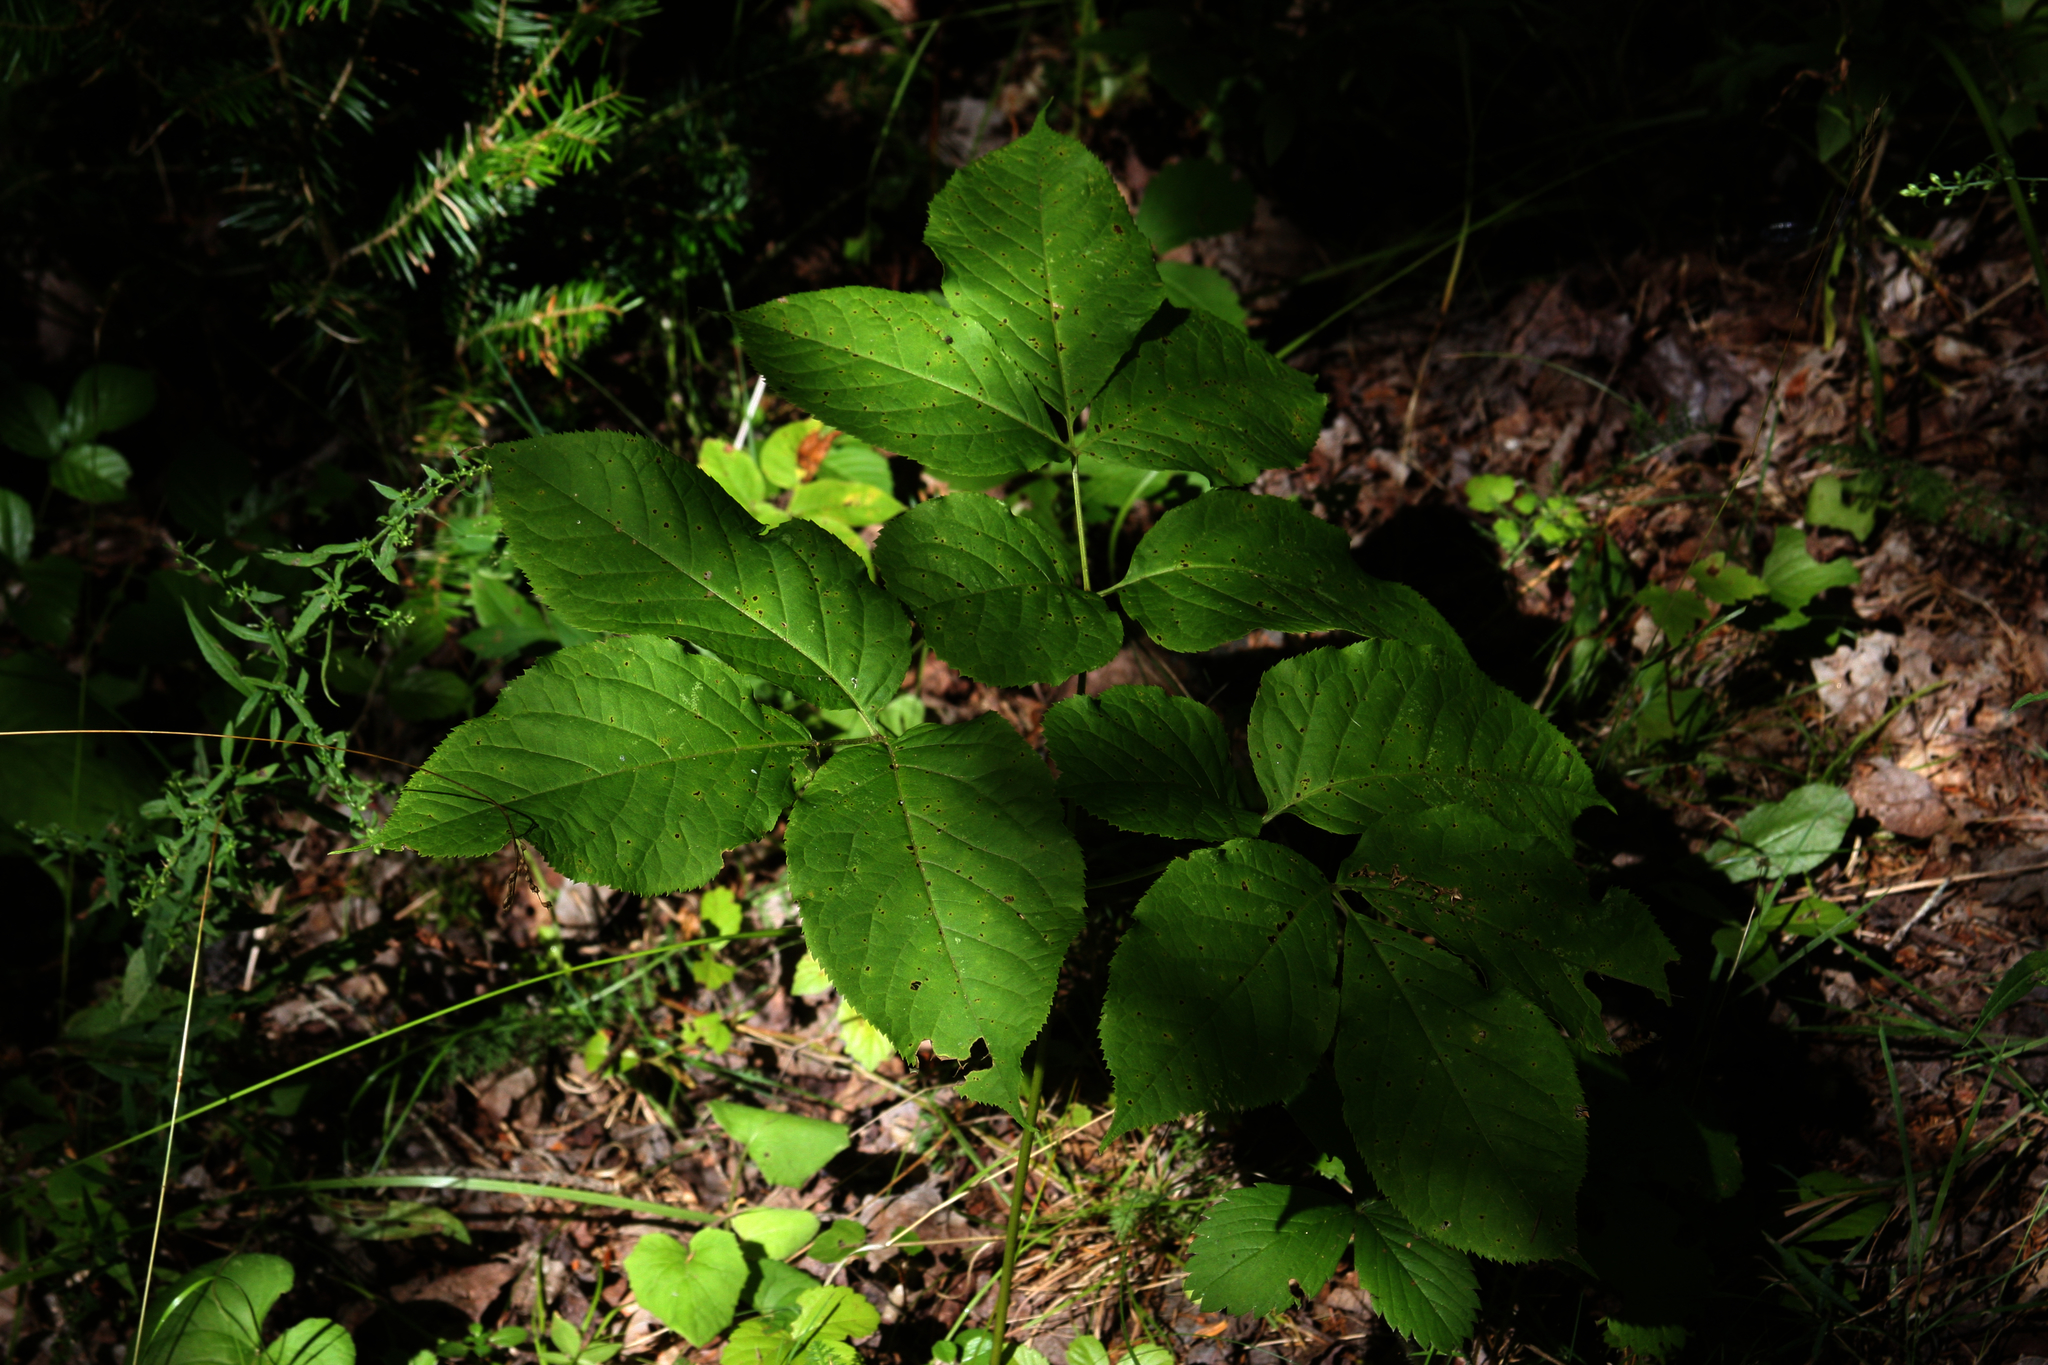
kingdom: Plantae
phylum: Tracheophyta
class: Magnoliopsida
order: Apiales
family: Araliaceae
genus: Aralia
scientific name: Aralia nudicaulis
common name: Wild sarsaparilla
